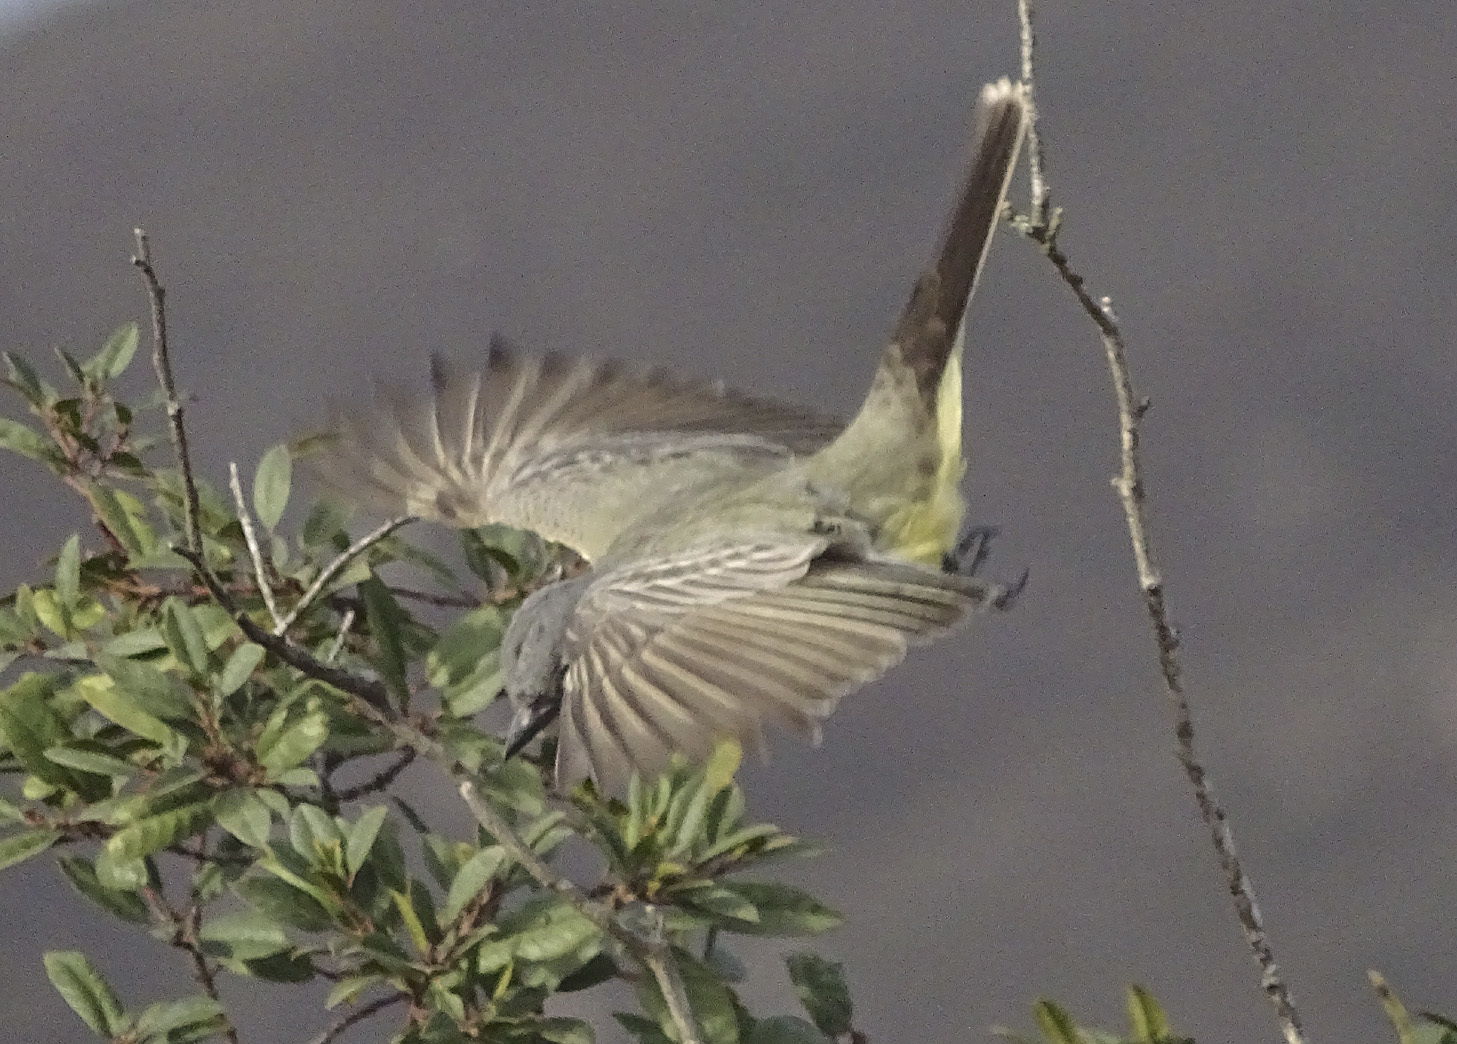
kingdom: Animalia
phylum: Chordata
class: Aves
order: Passeriformes
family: Tyrannidae
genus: Tyrannus
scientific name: Tyrannus vociferans
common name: Cassin's kingbird
